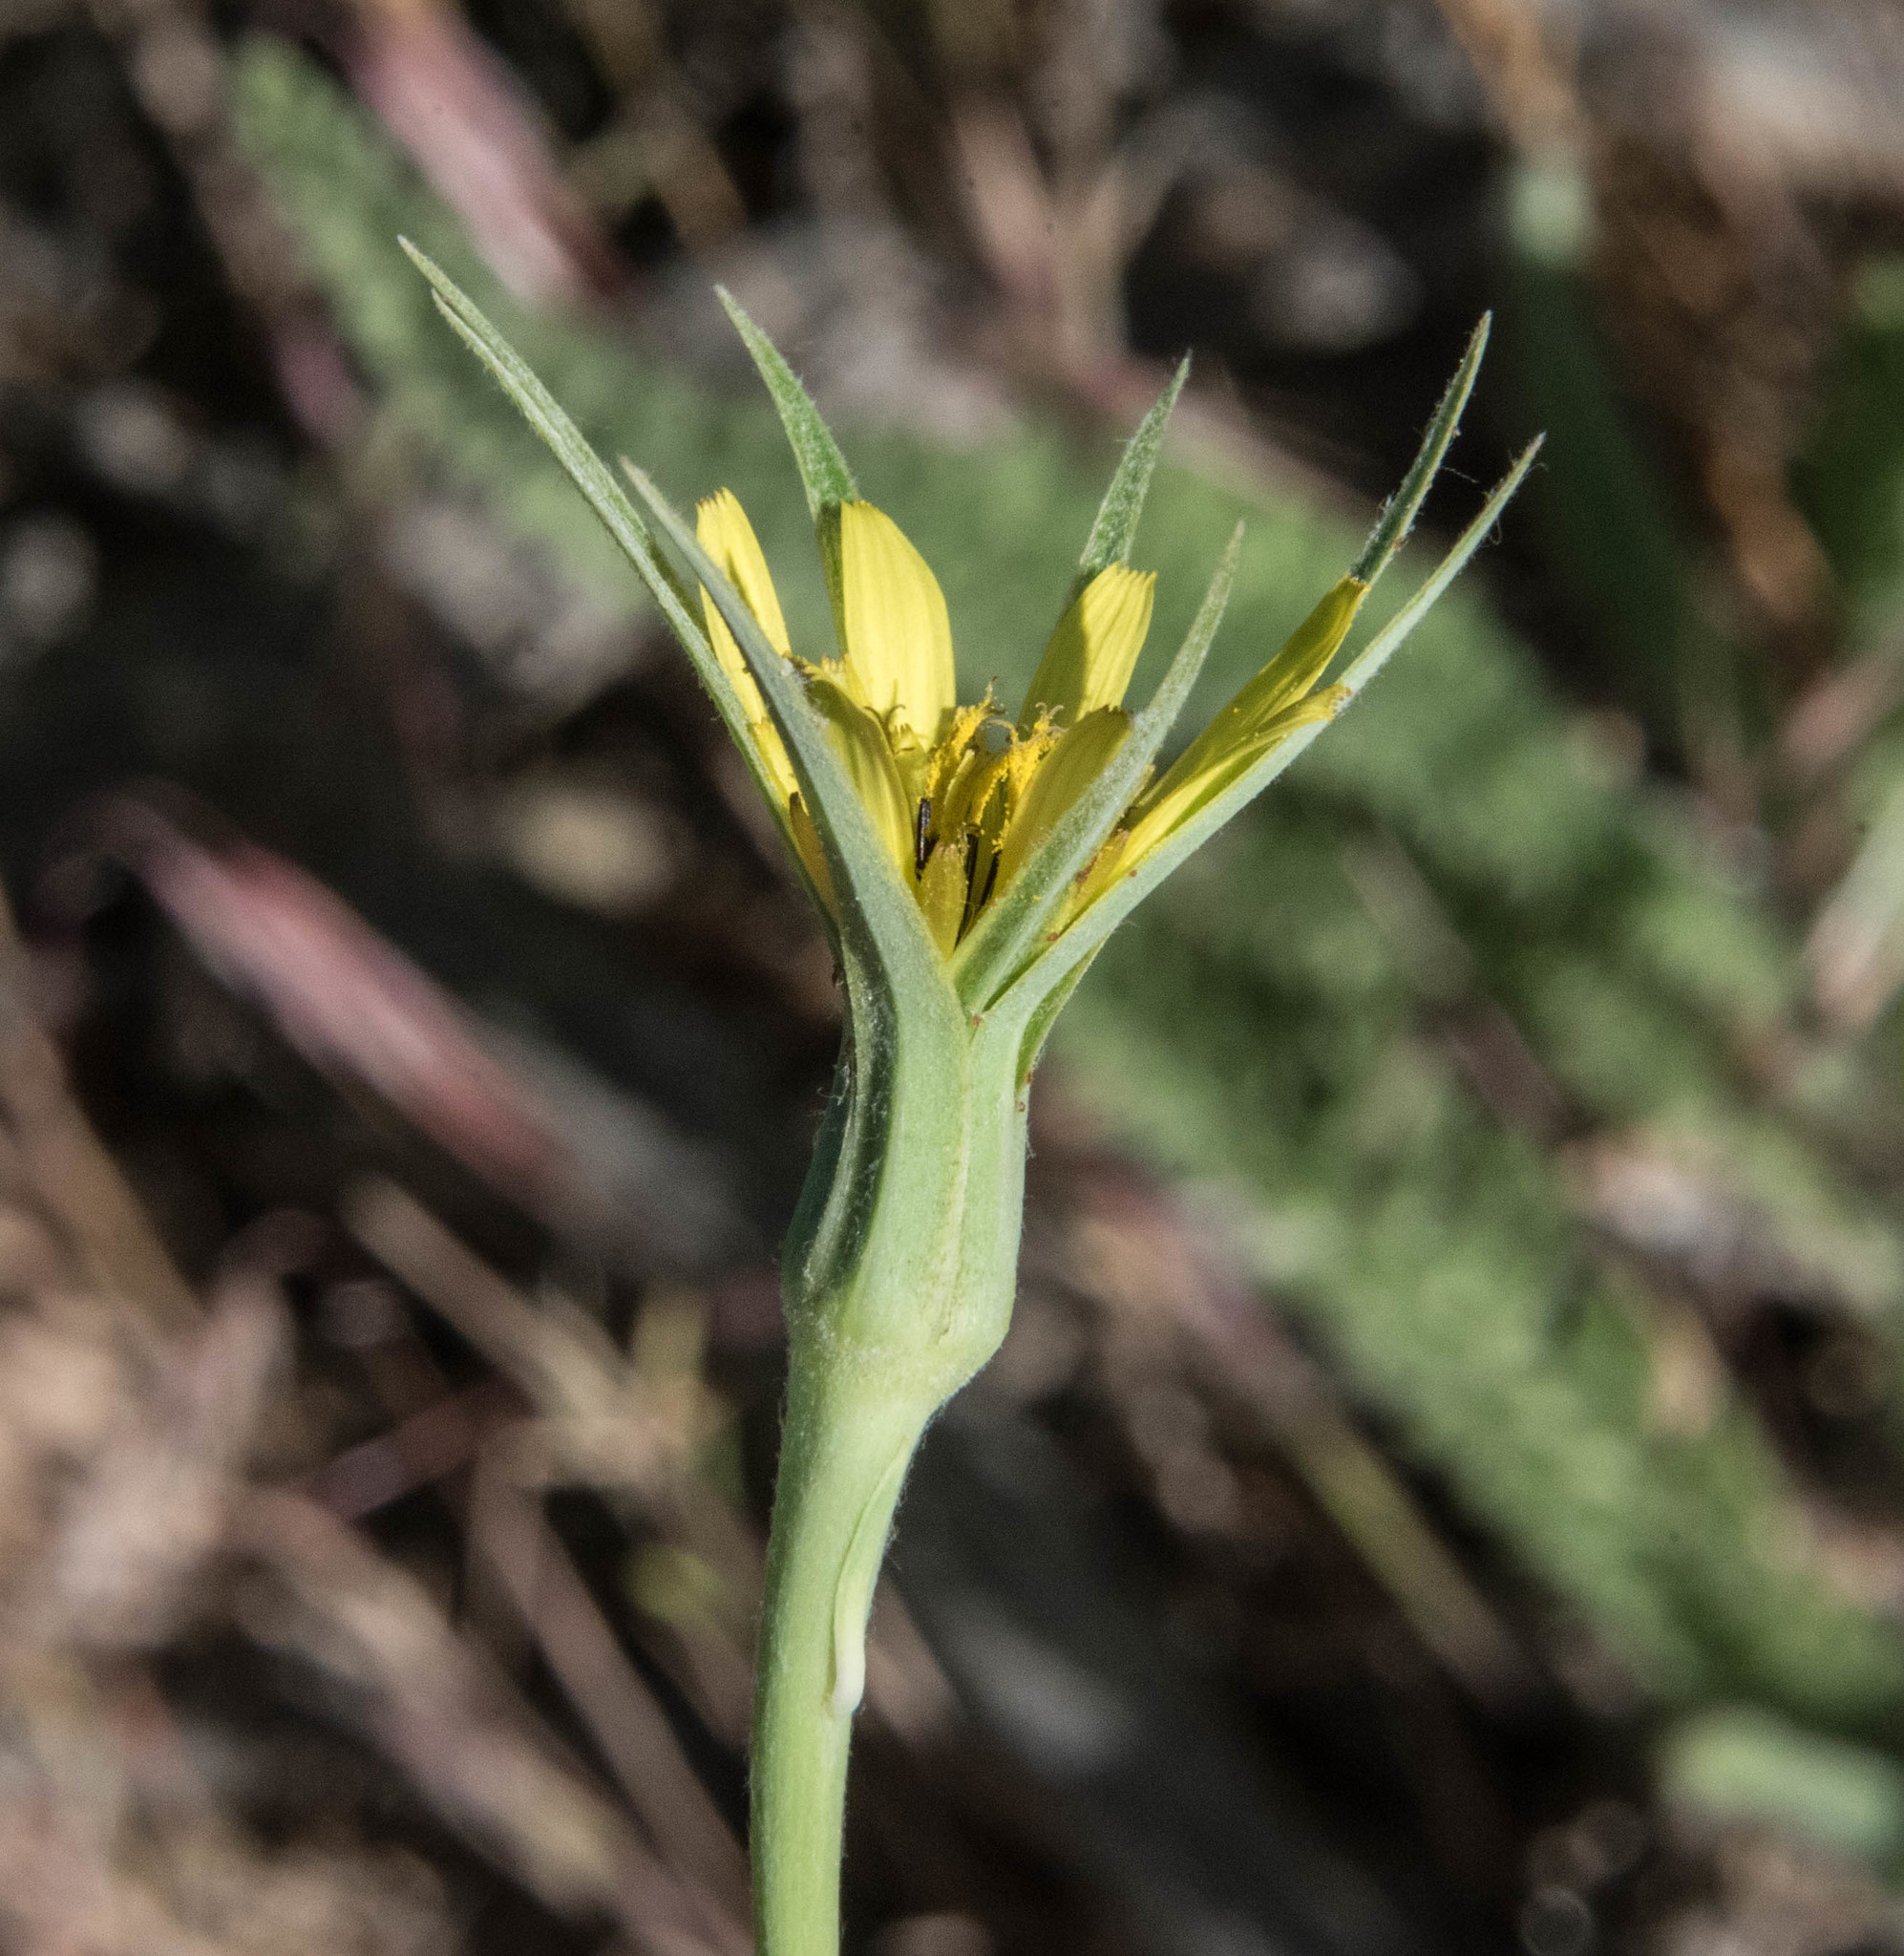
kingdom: Plantae
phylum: Tracheophyta
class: Magnoliopsida
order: Asterales
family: Asteraceae
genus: Microseris
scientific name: Microseris lindleyi
